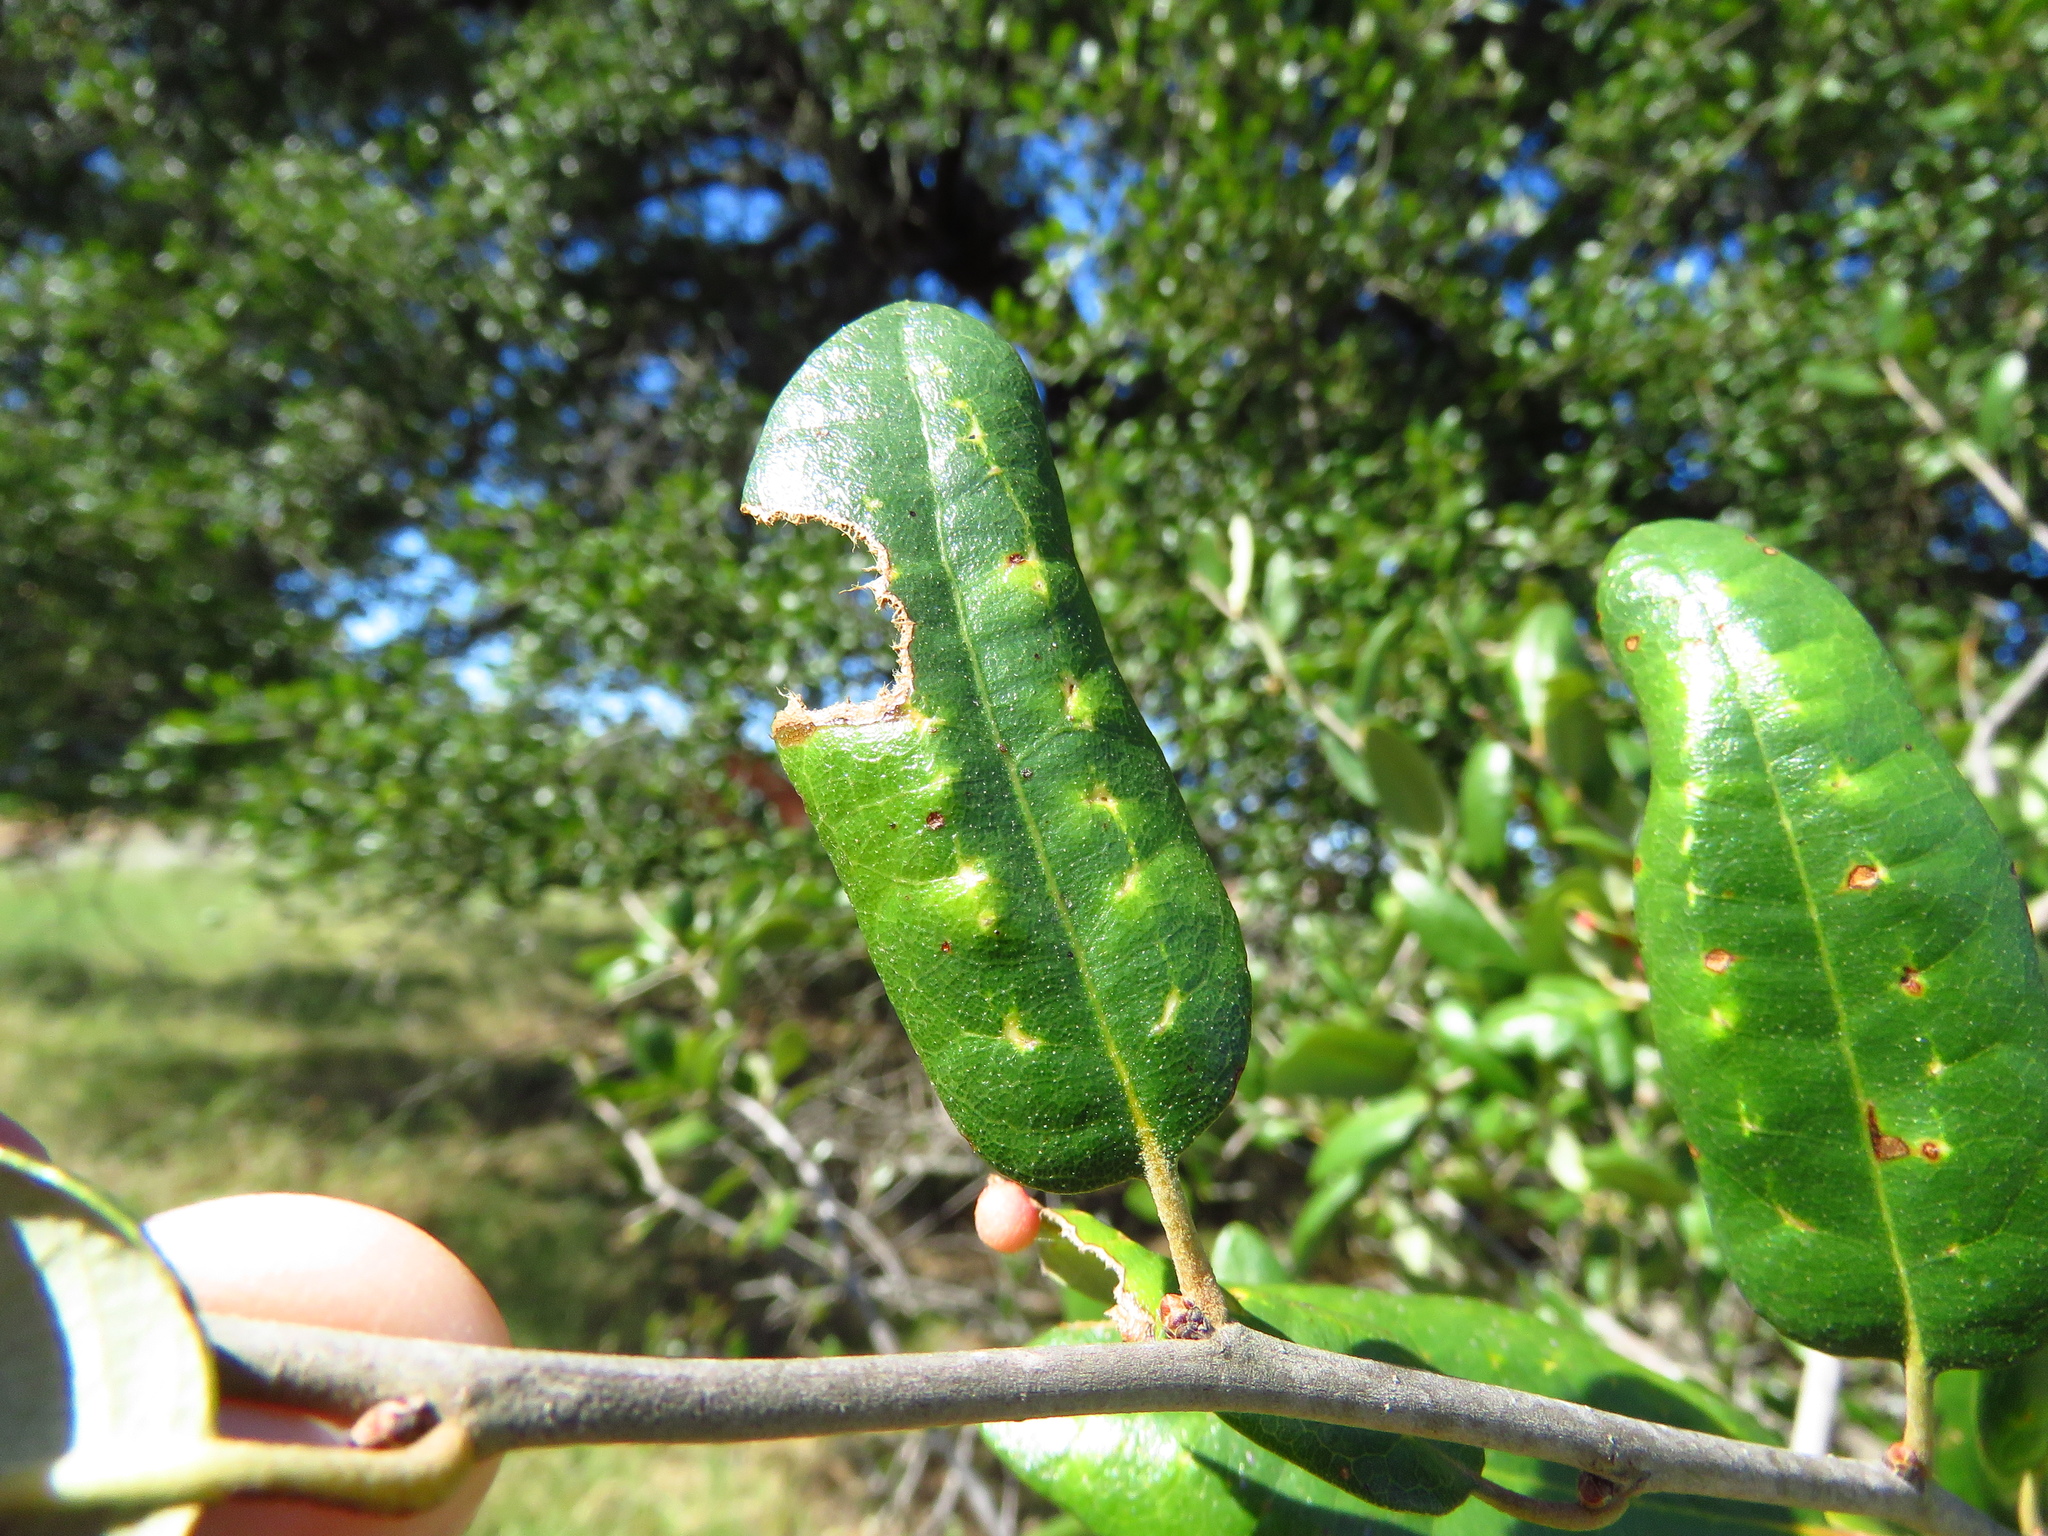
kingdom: Animalia
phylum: Arthropoda
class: Insecta
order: Hymenoptera
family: Cynipidae
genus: Belonocnema
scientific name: Belonocnema kinseyi
